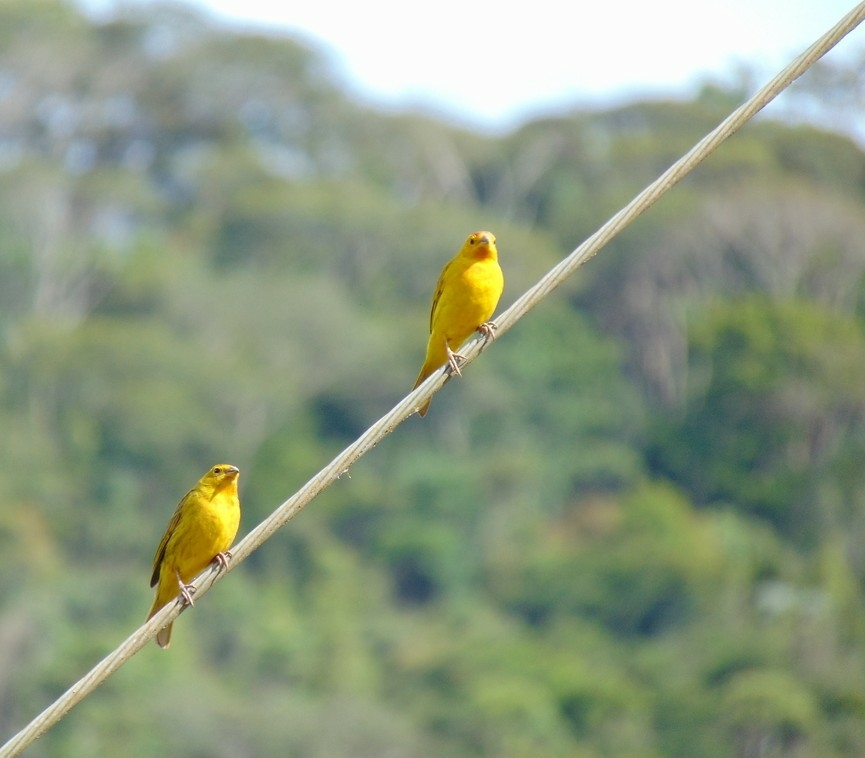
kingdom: Animalia
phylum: Chordata
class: Aves
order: Passeriformes
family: Thraupidae
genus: Sicalis
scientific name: Sicalis flaveola
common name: Saffron finch
